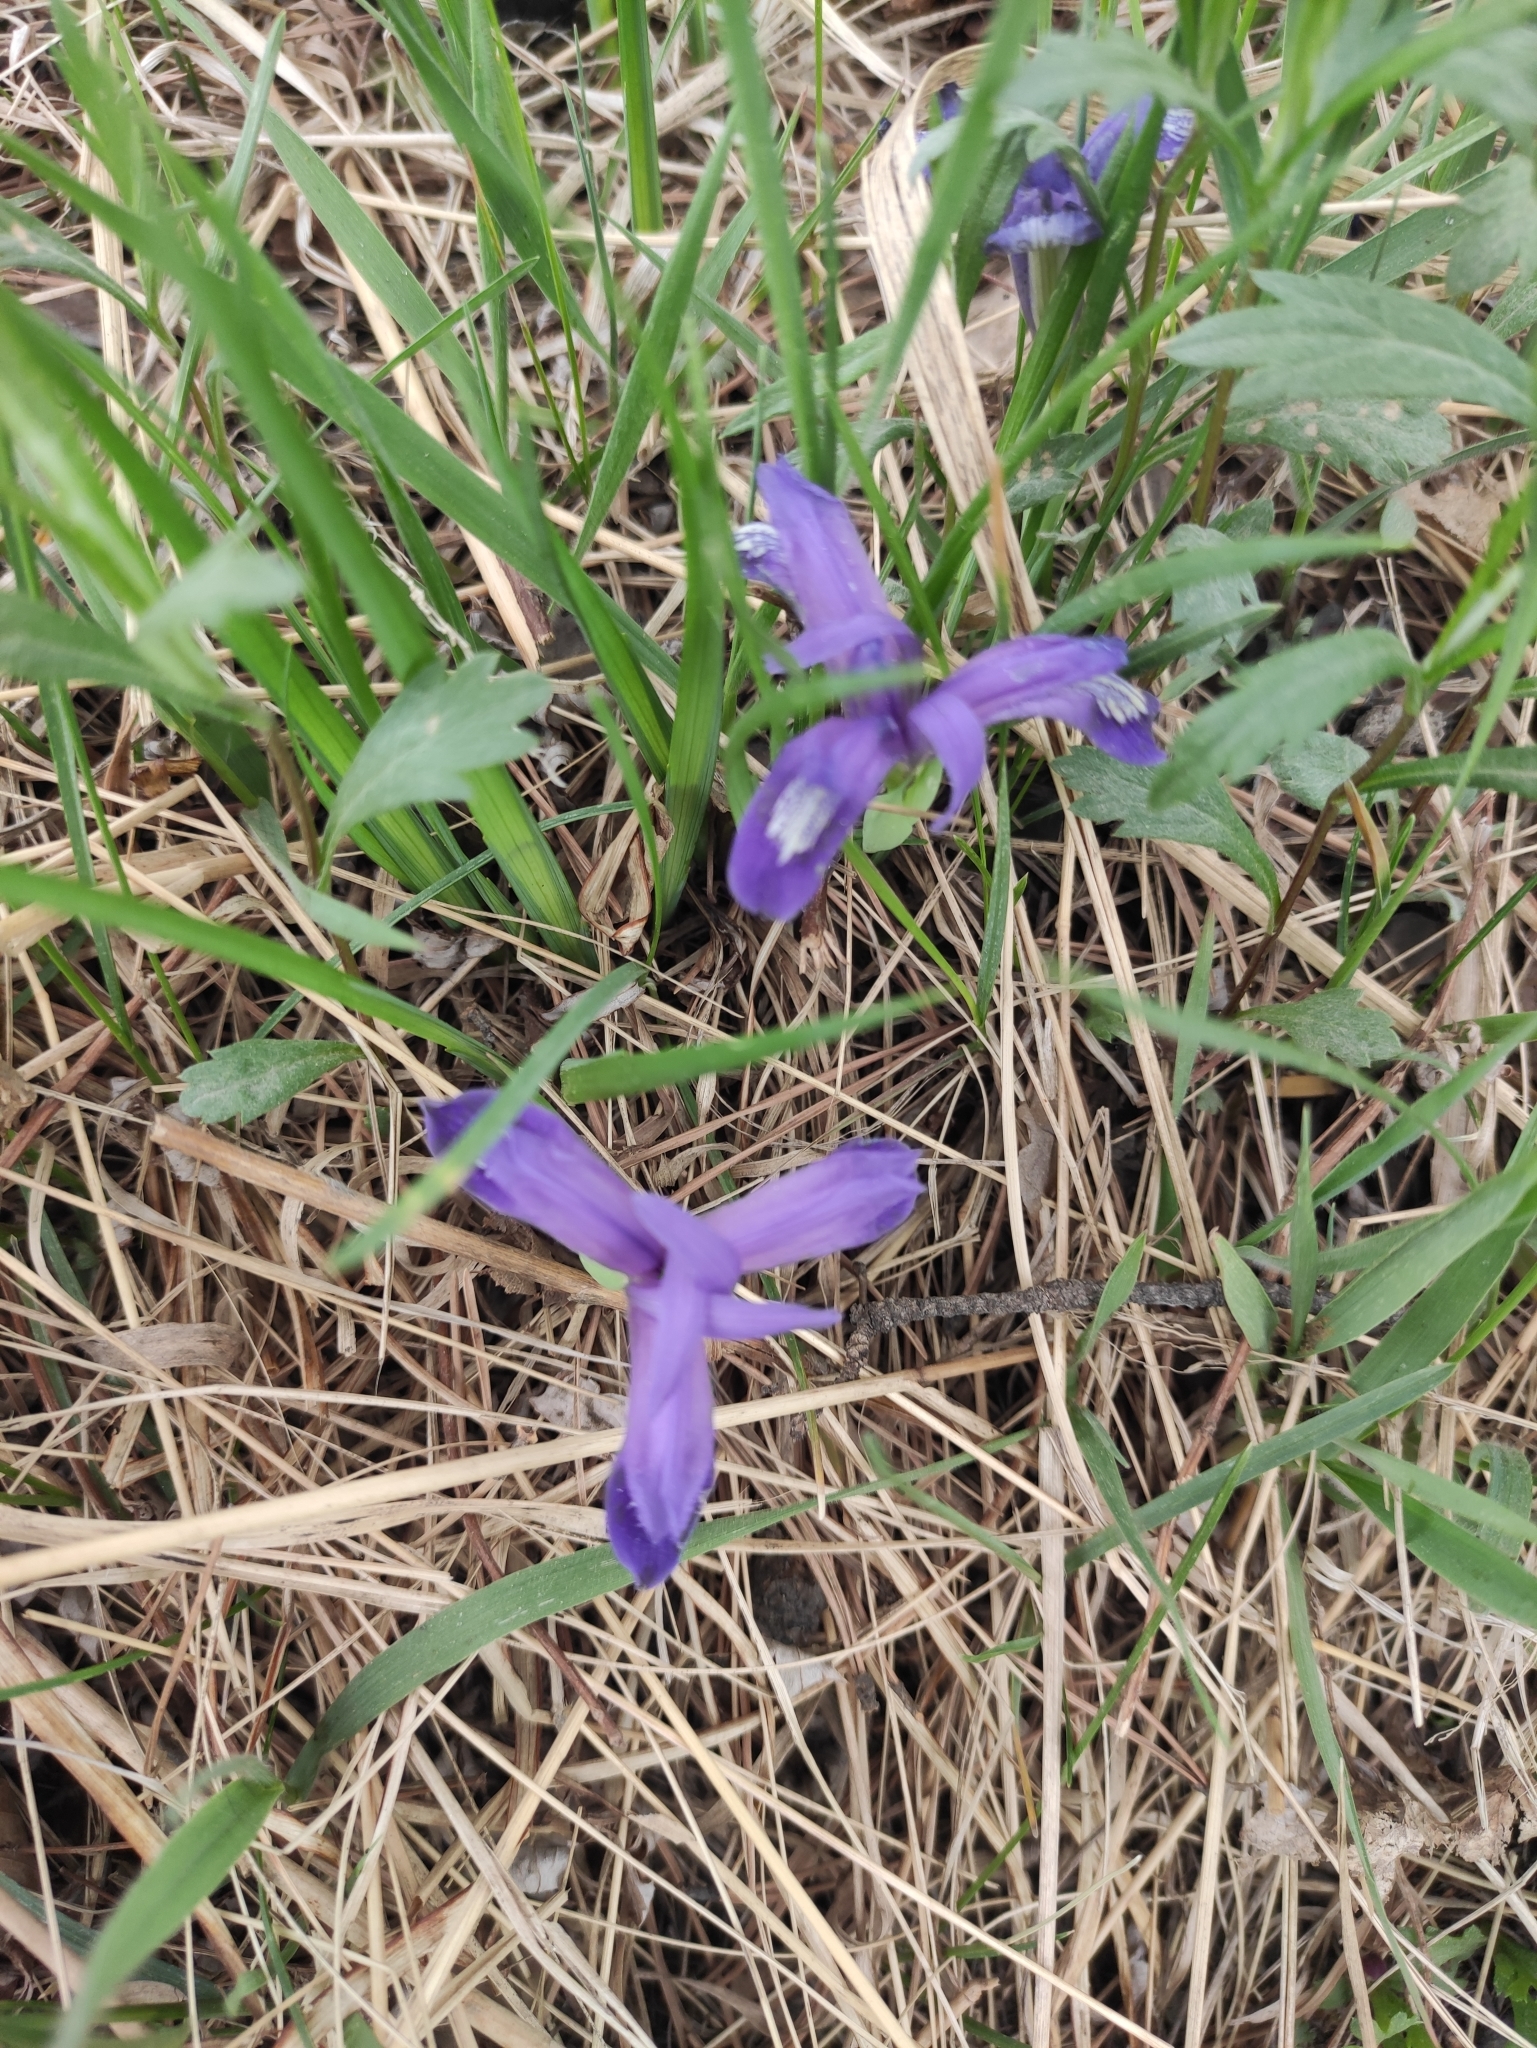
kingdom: Plantae
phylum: Tracheophyta
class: Liliopsida
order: Asparagales
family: Iridaceae
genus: Iris
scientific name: Iris ruthenica
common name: Purple-bract iris
